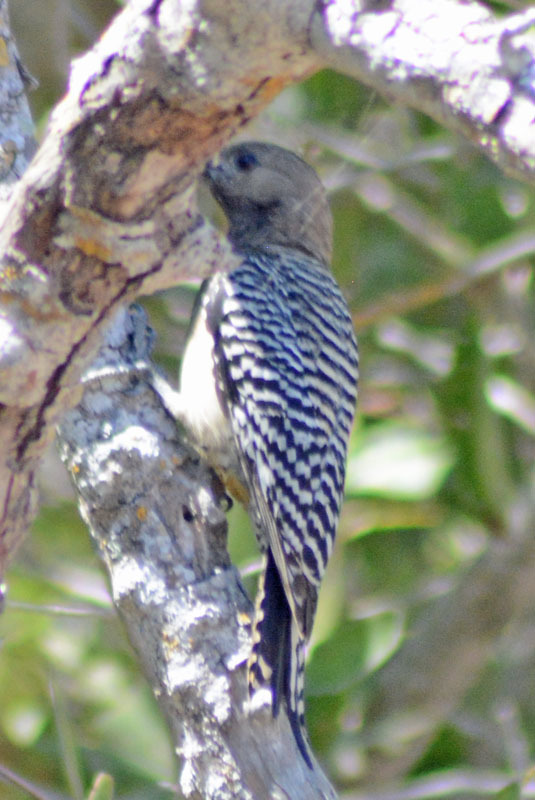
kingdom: Animalia
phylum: Chordata
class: Aves
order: Piciformes
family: Picidae
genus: Melanerpes
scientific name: Melanerpes uropygialis
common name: Gila woodpecker
